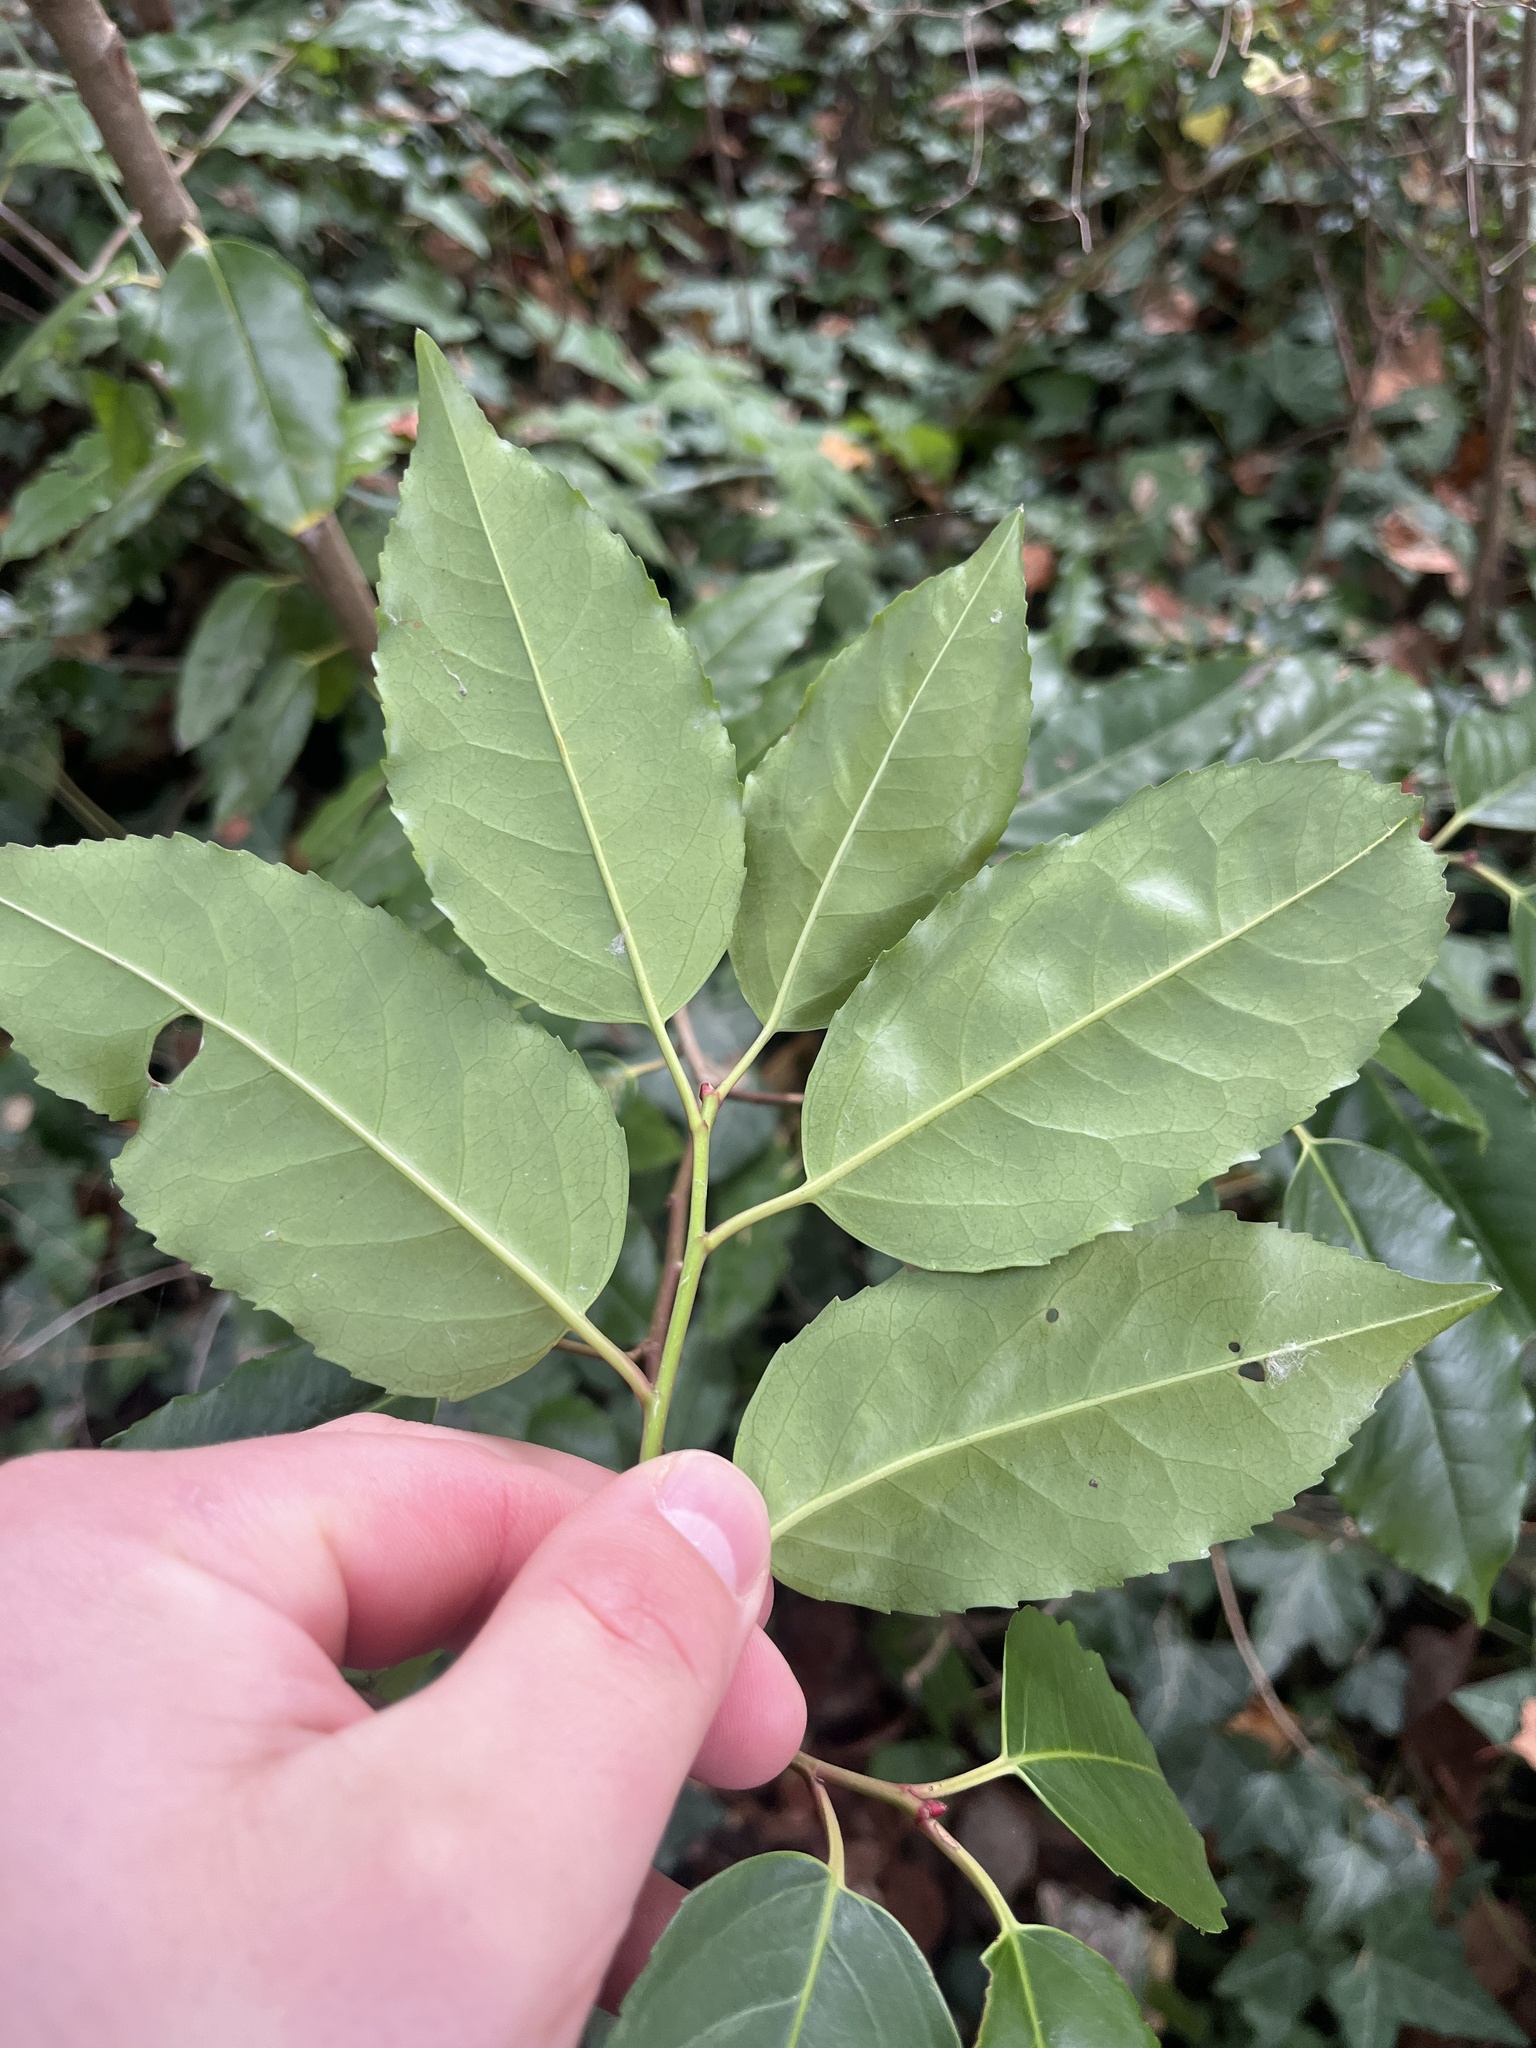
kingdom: Plantae
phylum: Tracheophyta
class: Magnoliopsida
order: Rosales
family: Rosaceae
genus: Prunus
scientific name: Prunus lusitanica
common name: Portugal laurel
